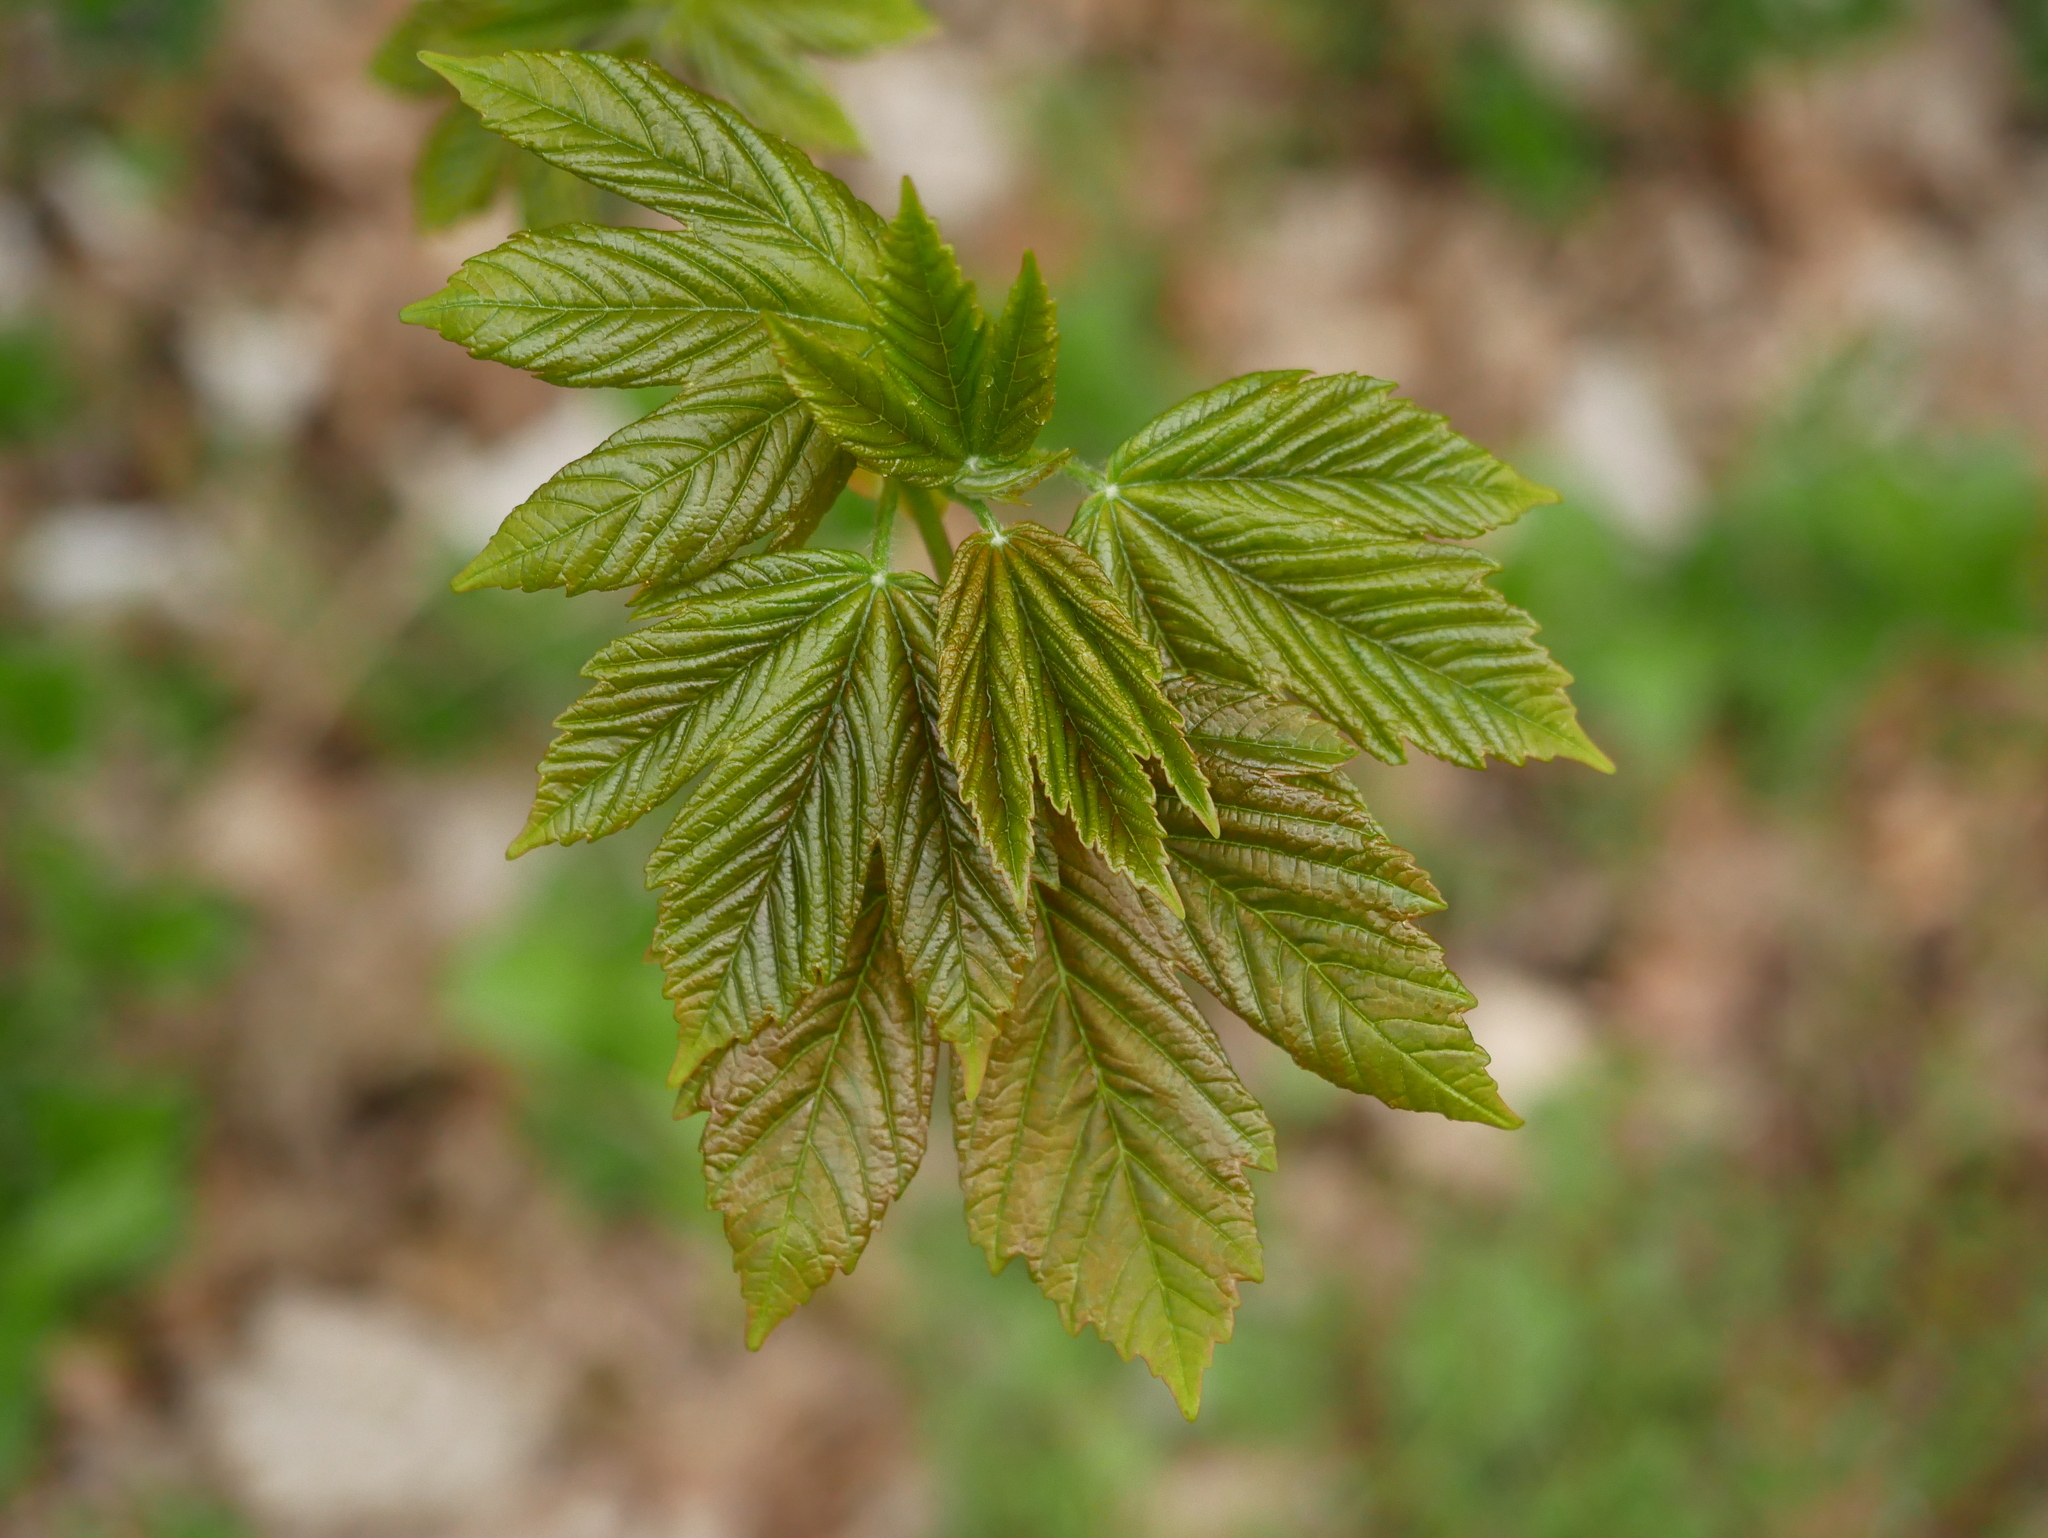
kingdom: Plantae
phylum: Tracheophyta
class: Magnoliopsida
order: Sapindales
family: Sapindaceae
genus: Acer
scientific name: Acer pseudoplatanus
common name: Sycamore
